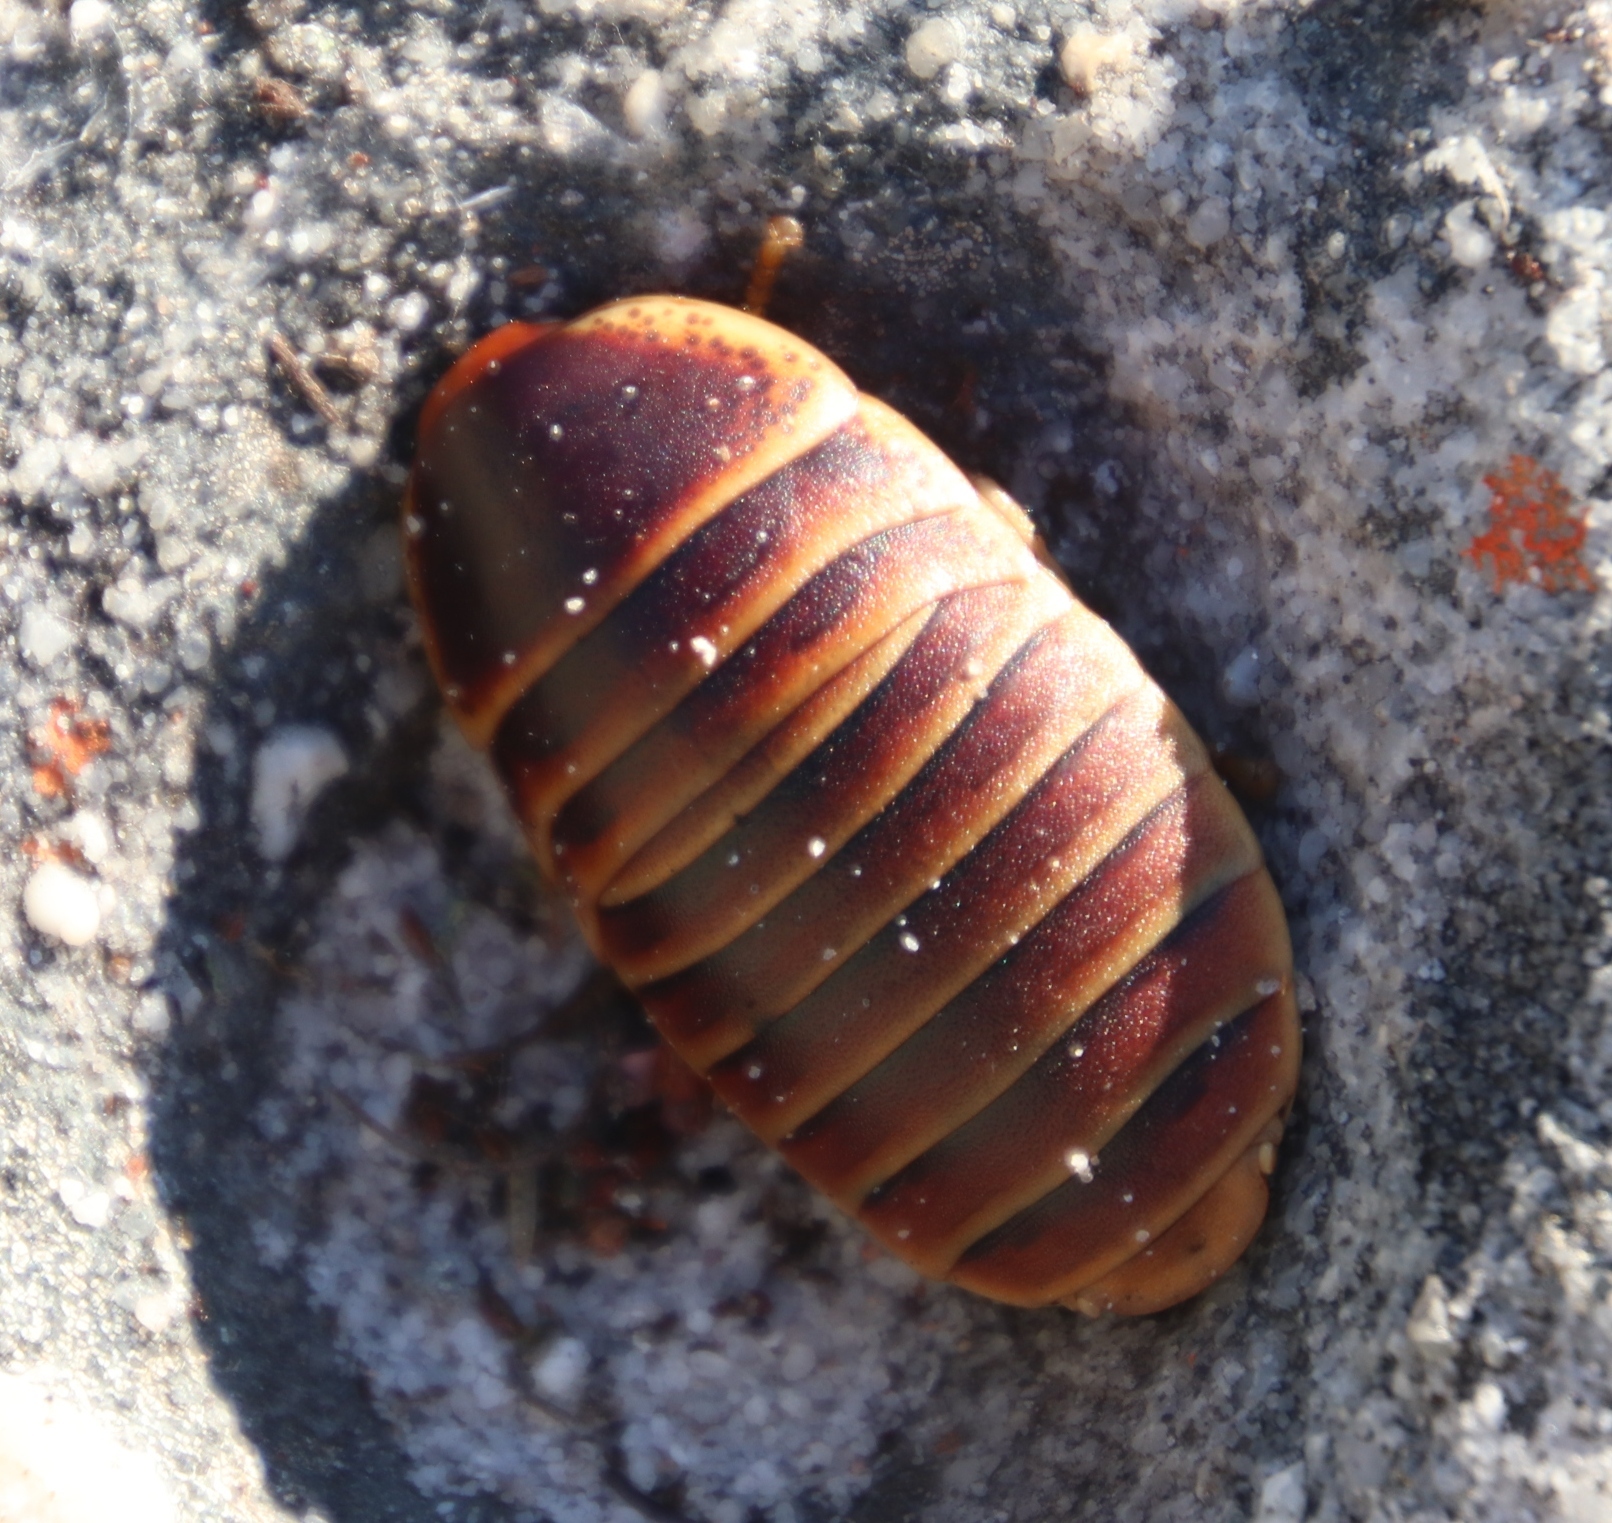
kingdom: Animalia
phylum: Arthropoda
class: Insecta
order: Blattodea
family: Blaberidae
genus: Aptera
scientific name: Aptera fusca
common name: Cape mountain cockroach
